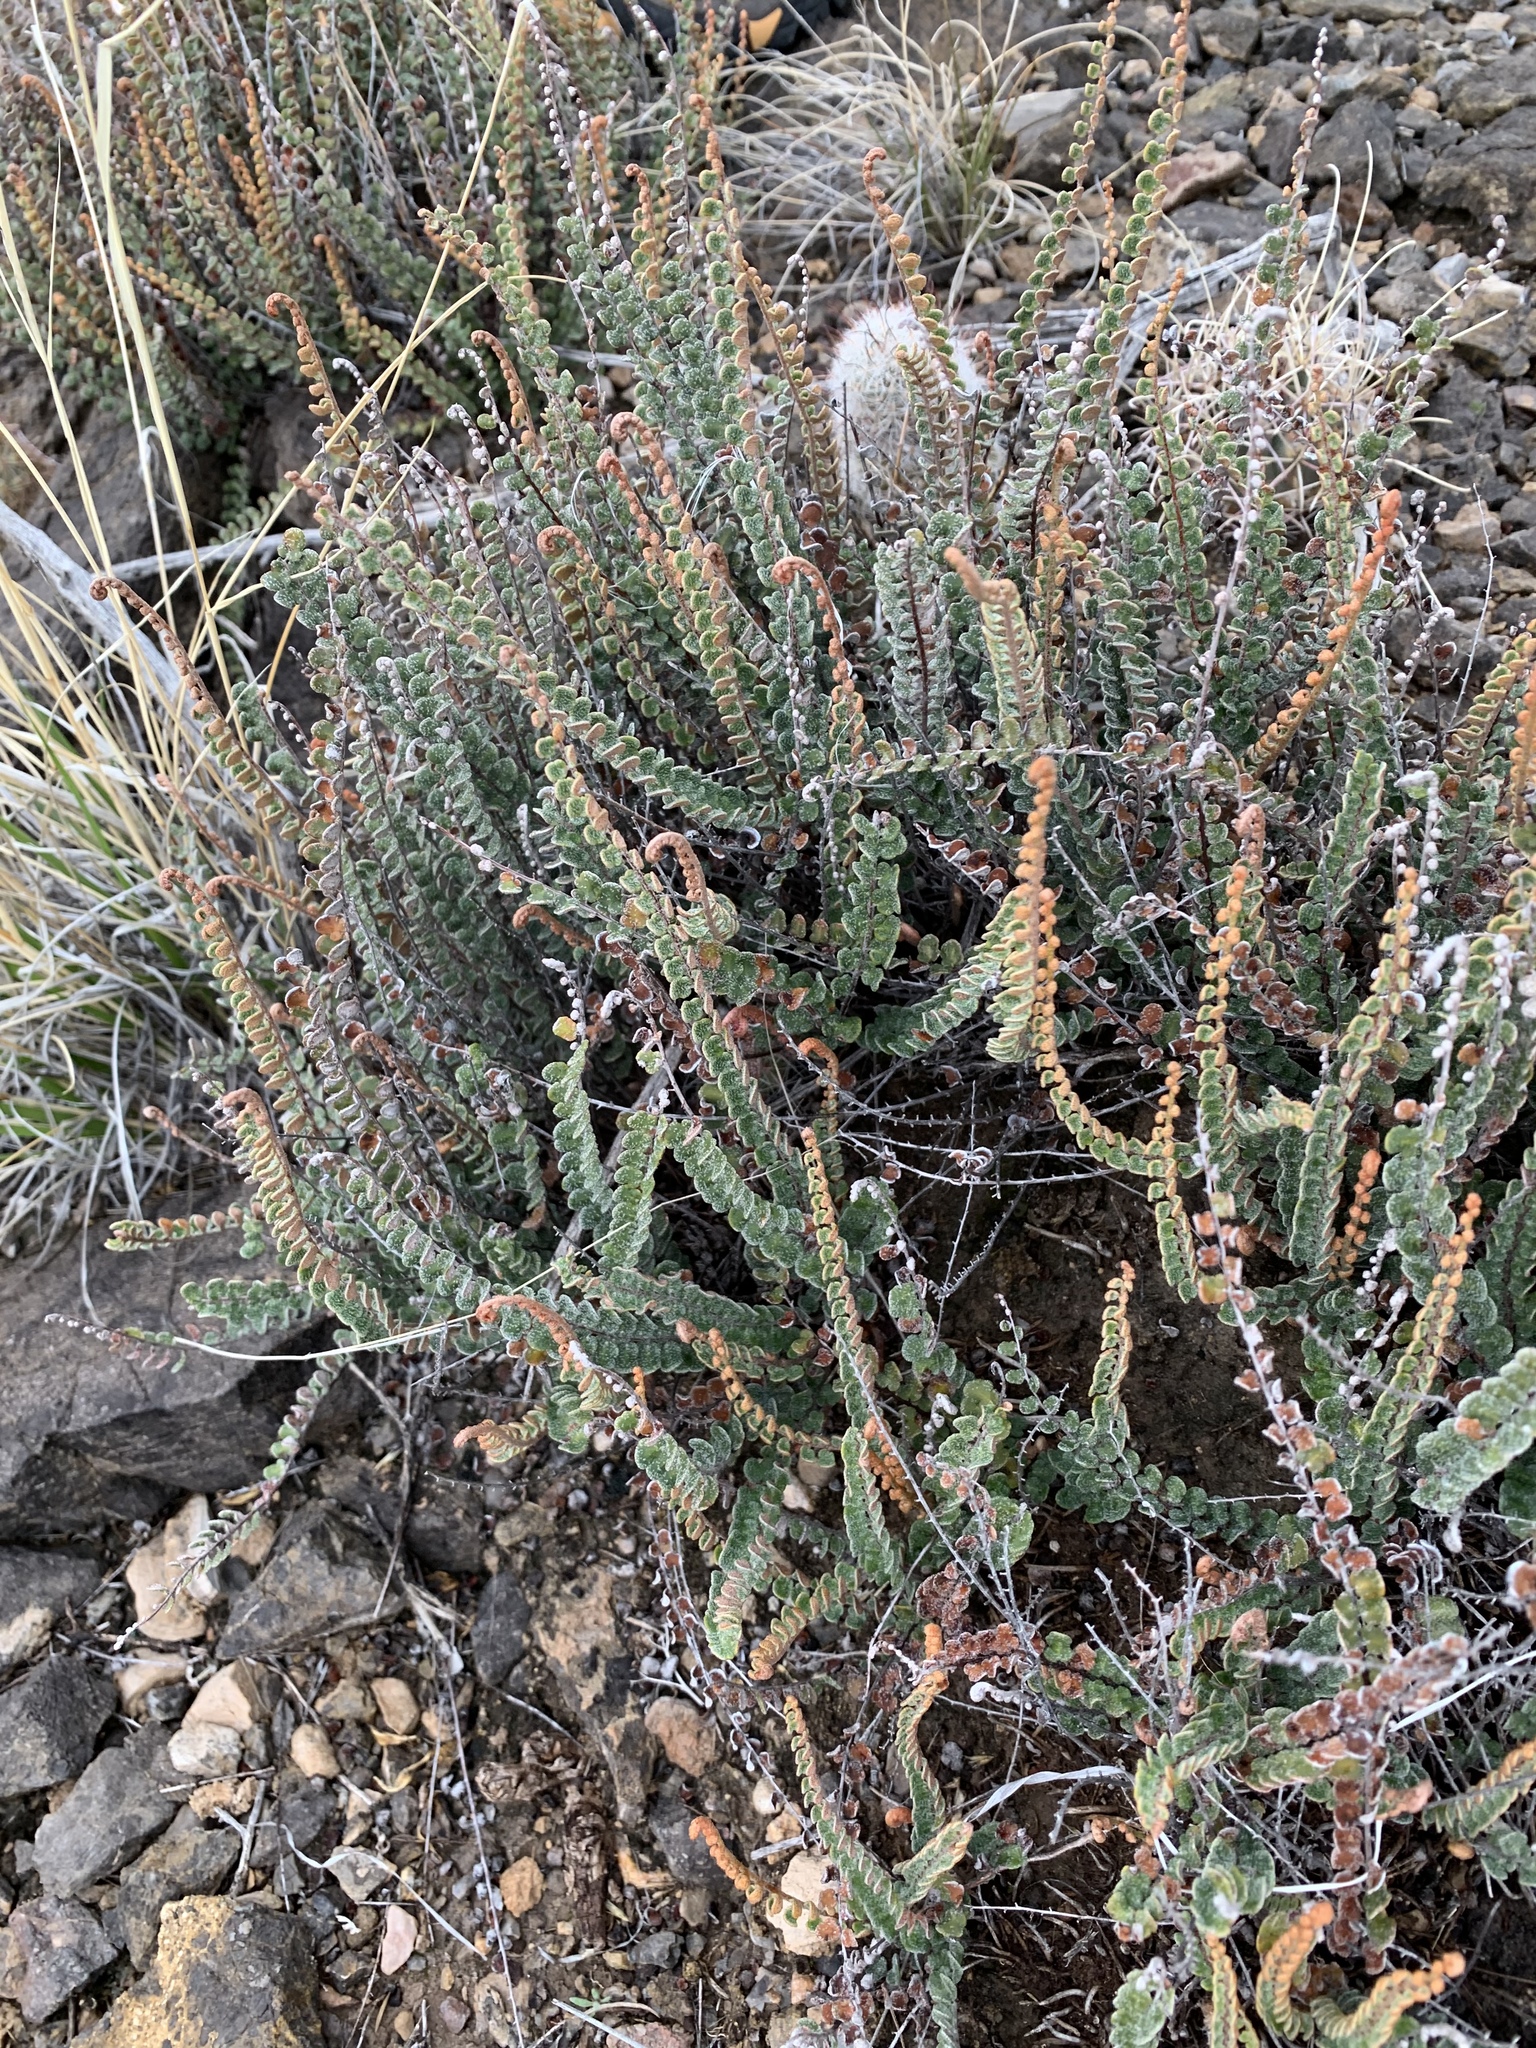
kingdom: Plantae
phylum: Tracheophyta
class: Polypodiopsida
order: Polypodiales
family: Pteridaceae
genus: Astrolepis
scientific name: Astrolepis cochisensis
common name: Scaly cloak fern
